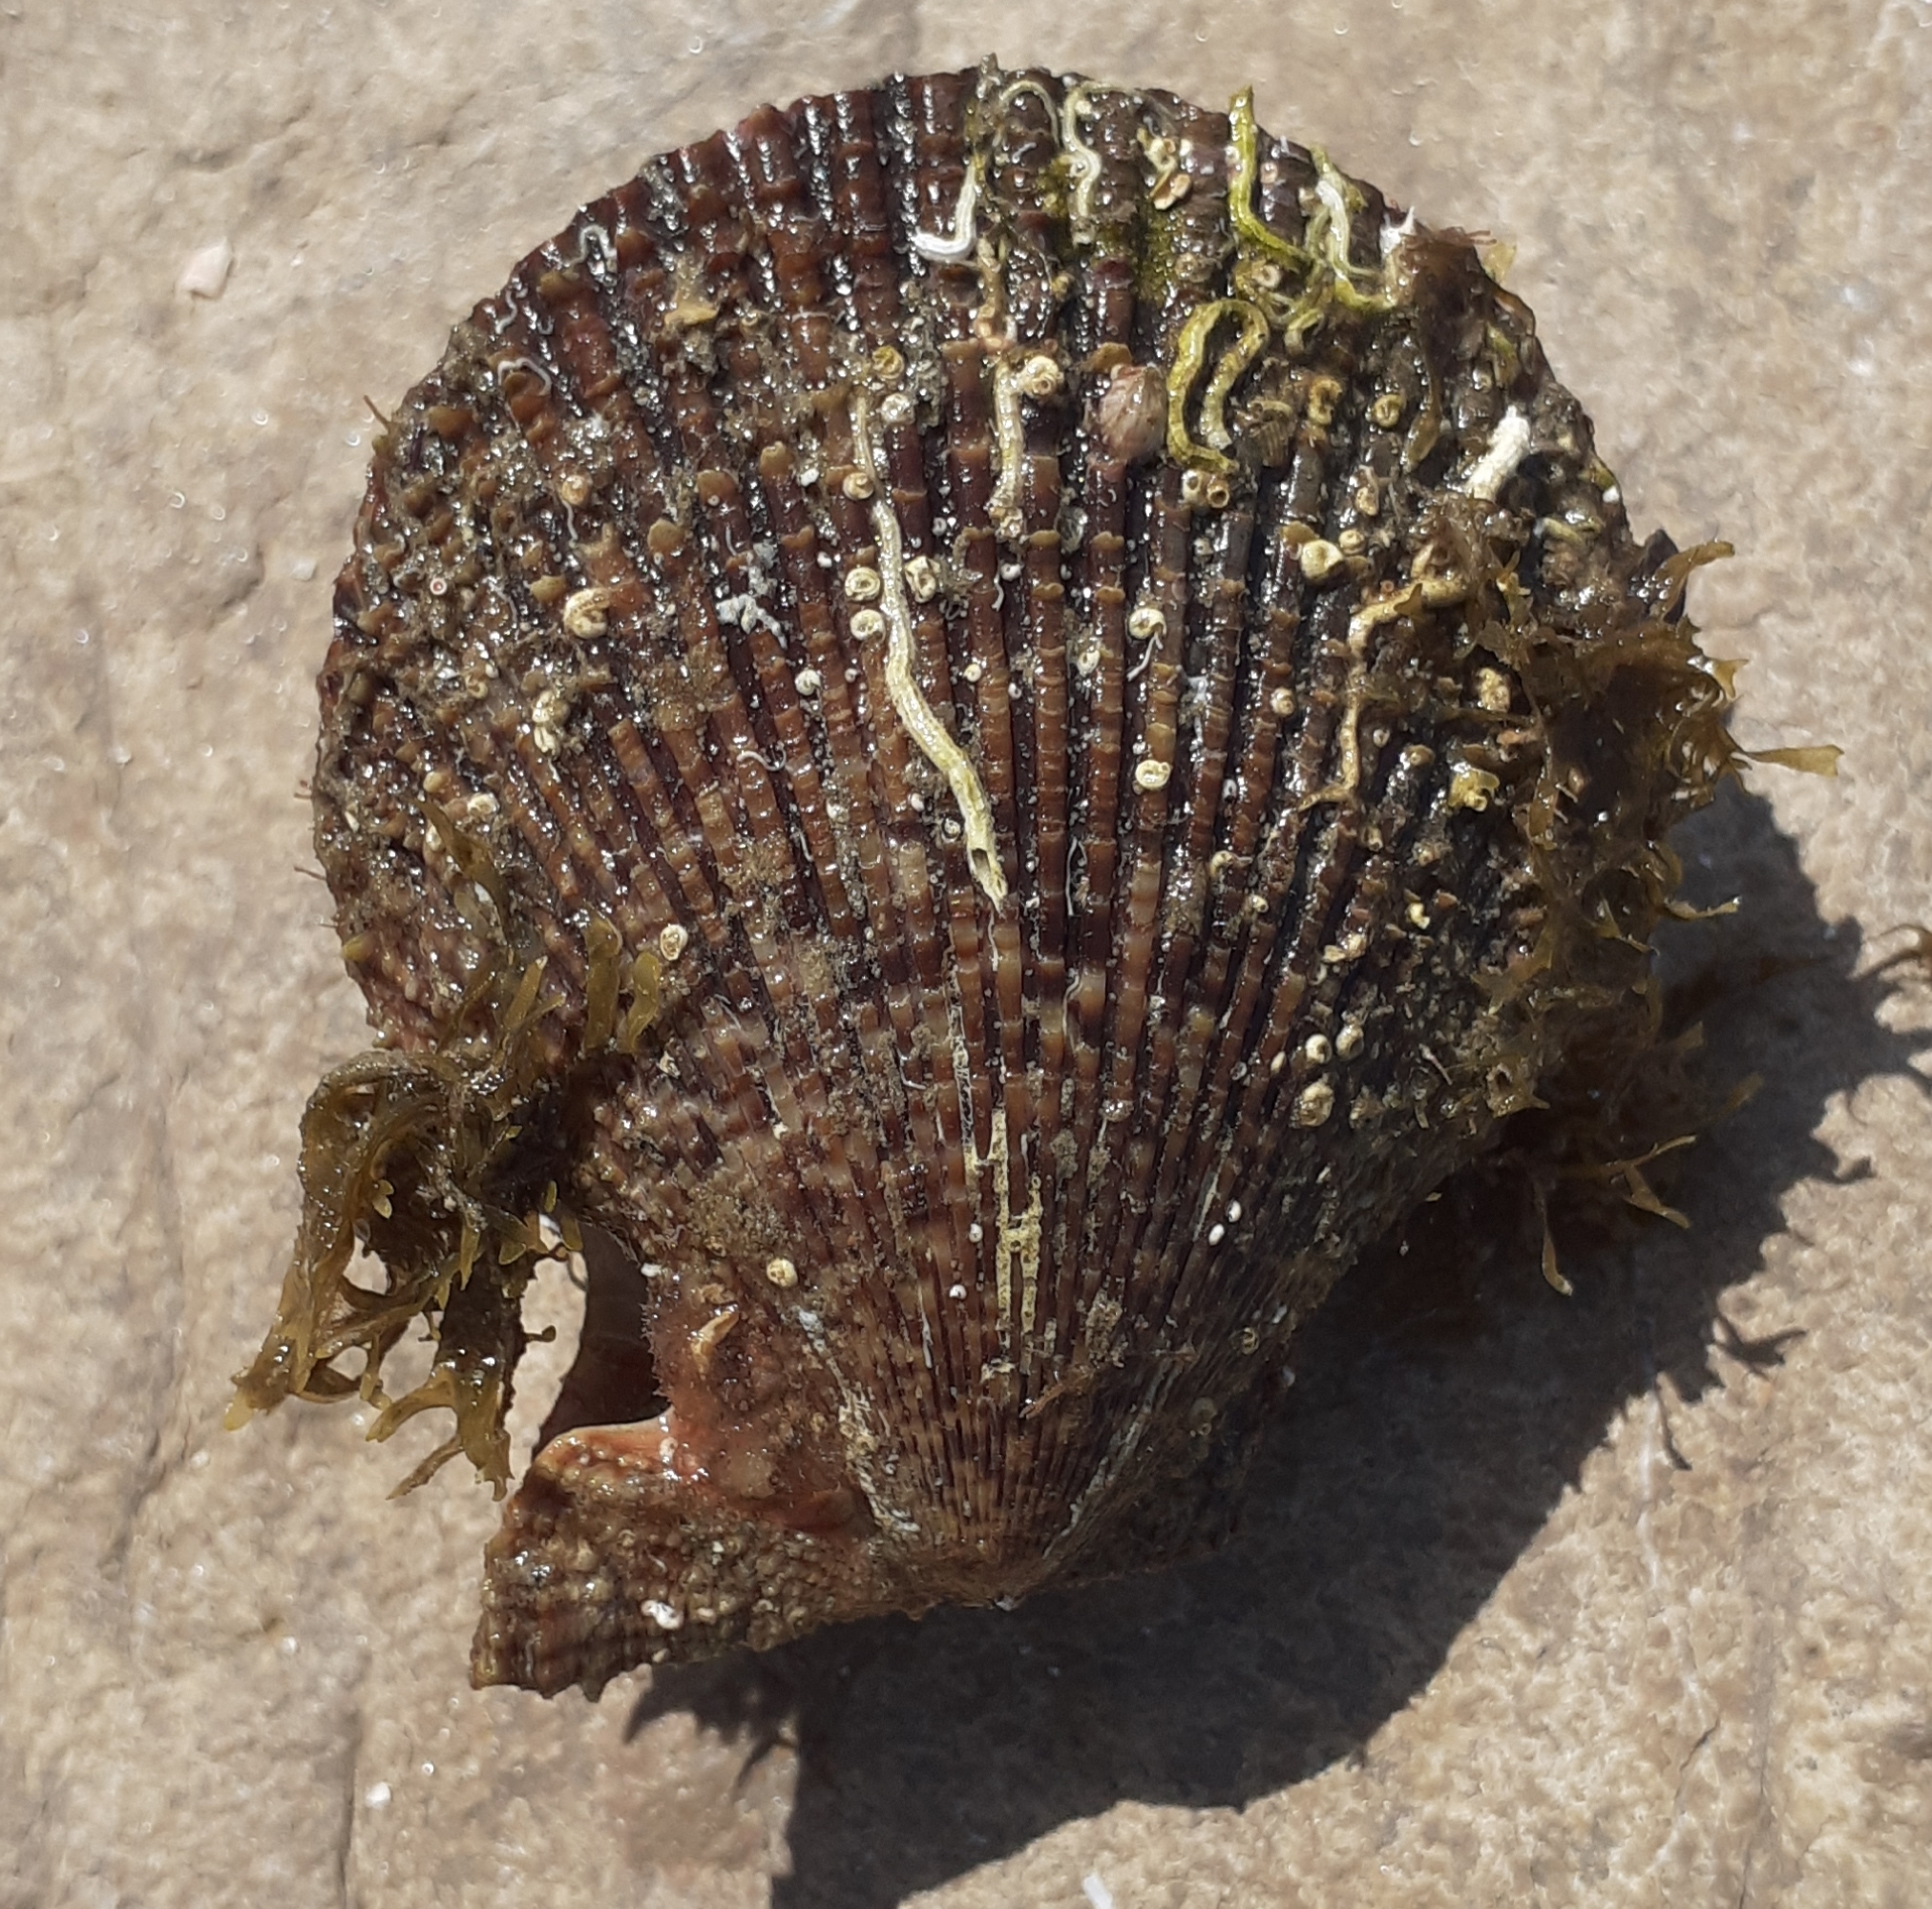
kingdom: Animalia
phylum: Mollusca
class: Bivalvia
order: Pectinida
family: Pectinidae
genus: Mimachlamys
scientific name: Mimachlamys varia
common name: Variegated scallop
